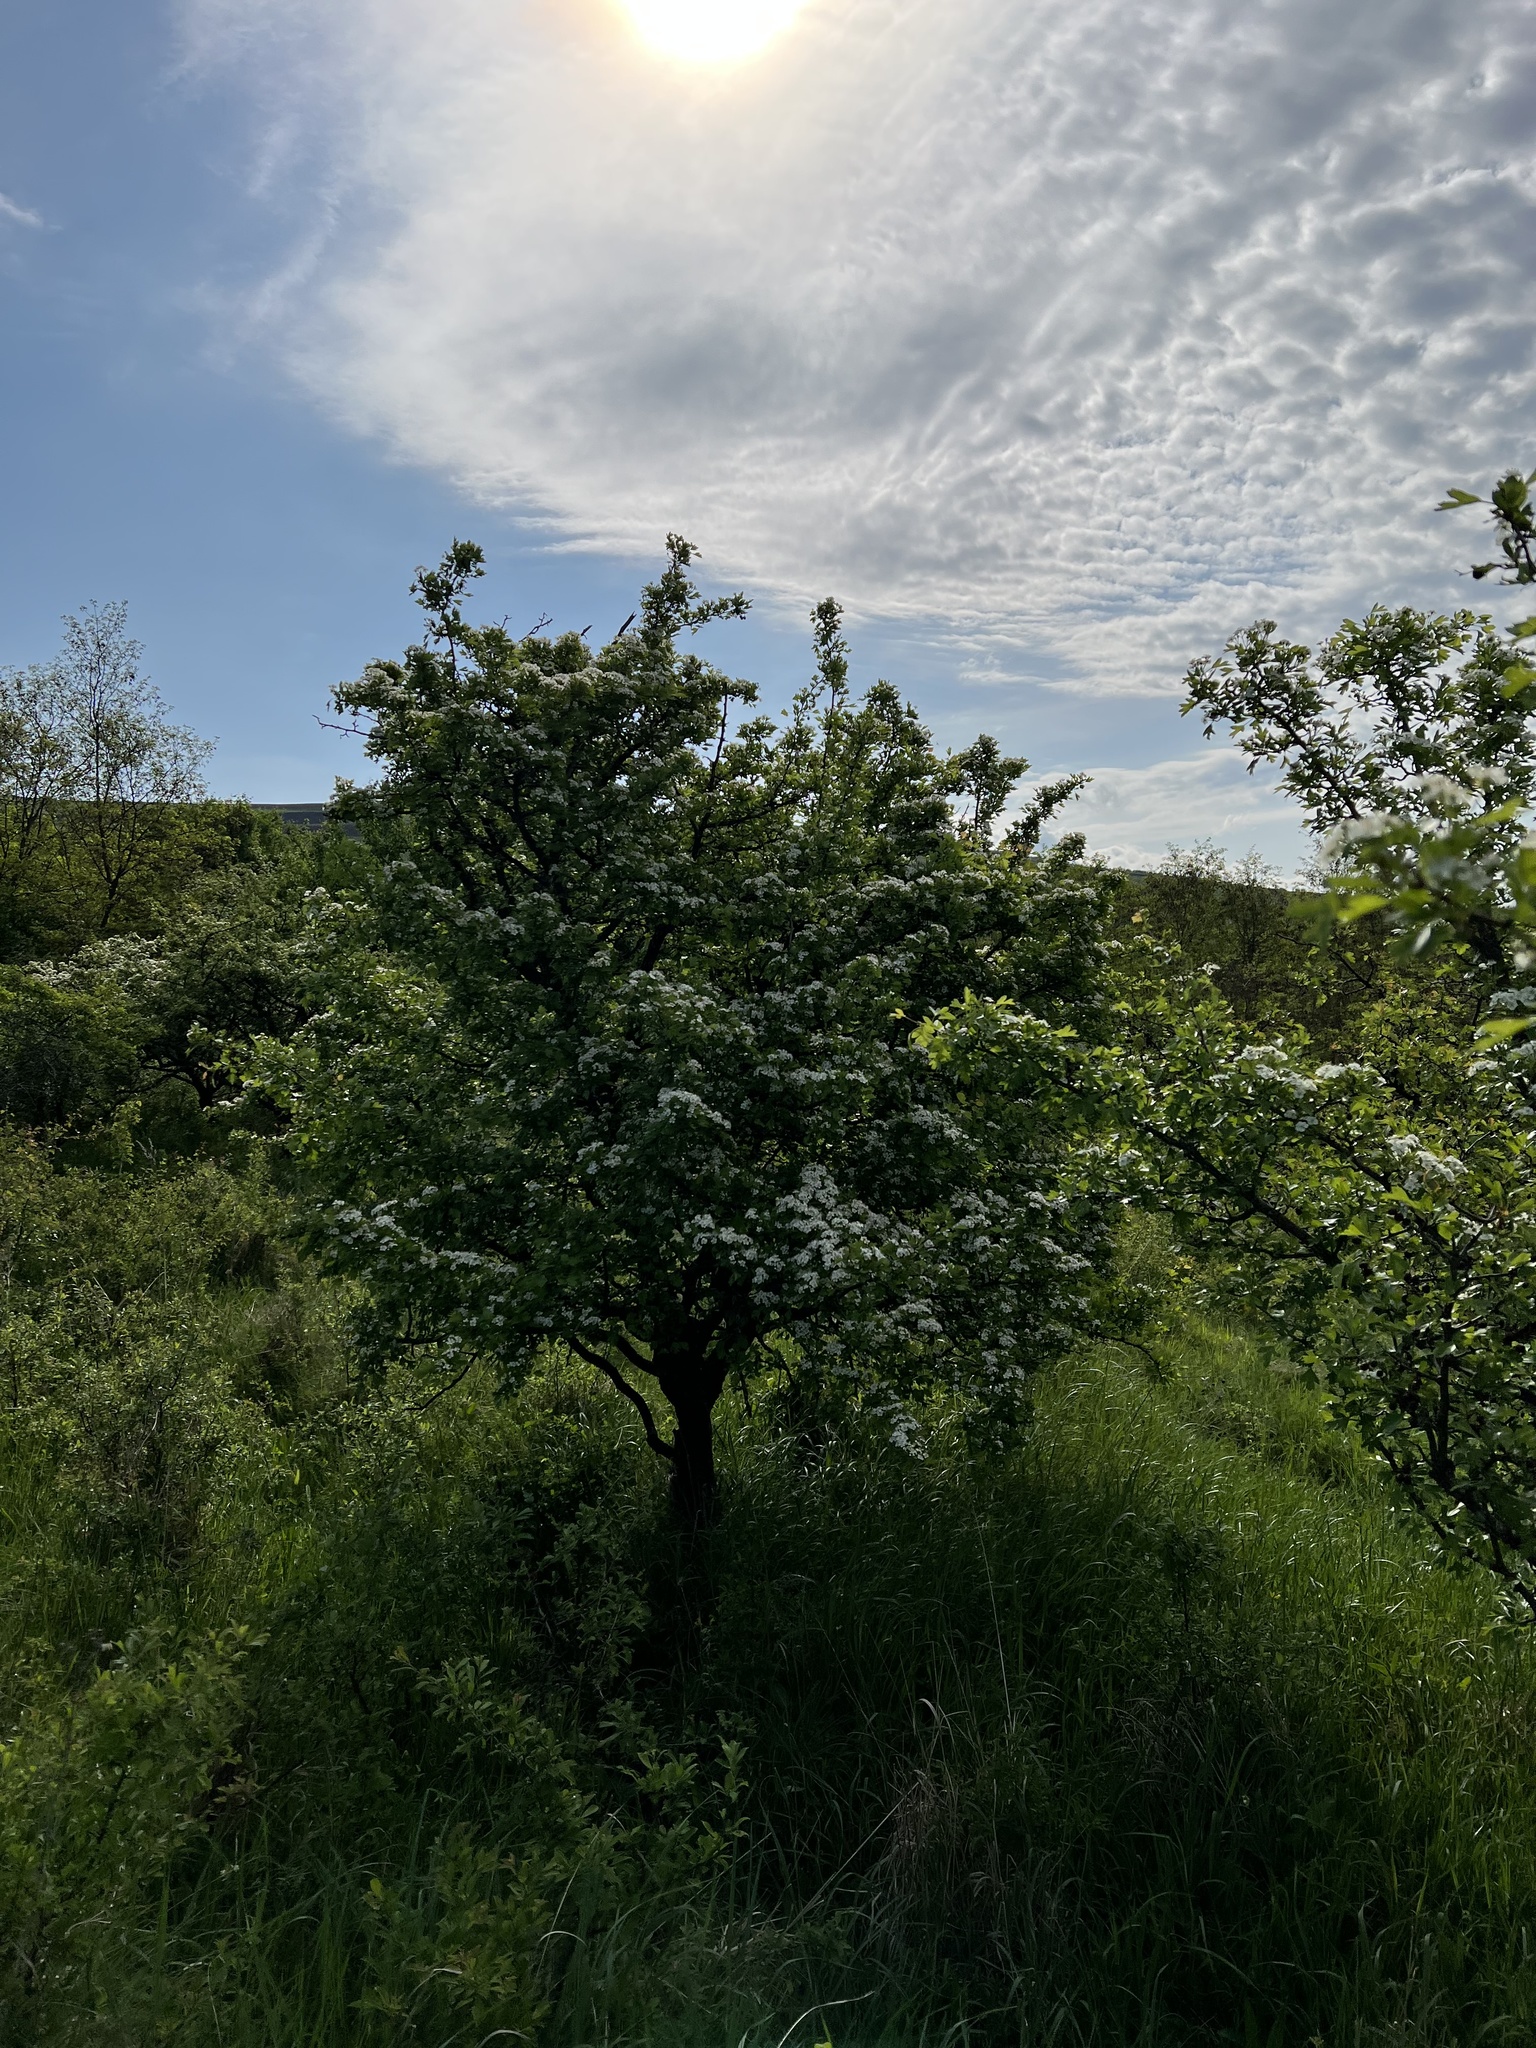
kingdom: Plantae
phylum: Tracheophyta
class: Magnoliopsida
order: Rosales
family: Rosaceae
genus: Crataegus
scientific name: Crataegus monogyna
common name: Hawthorn
